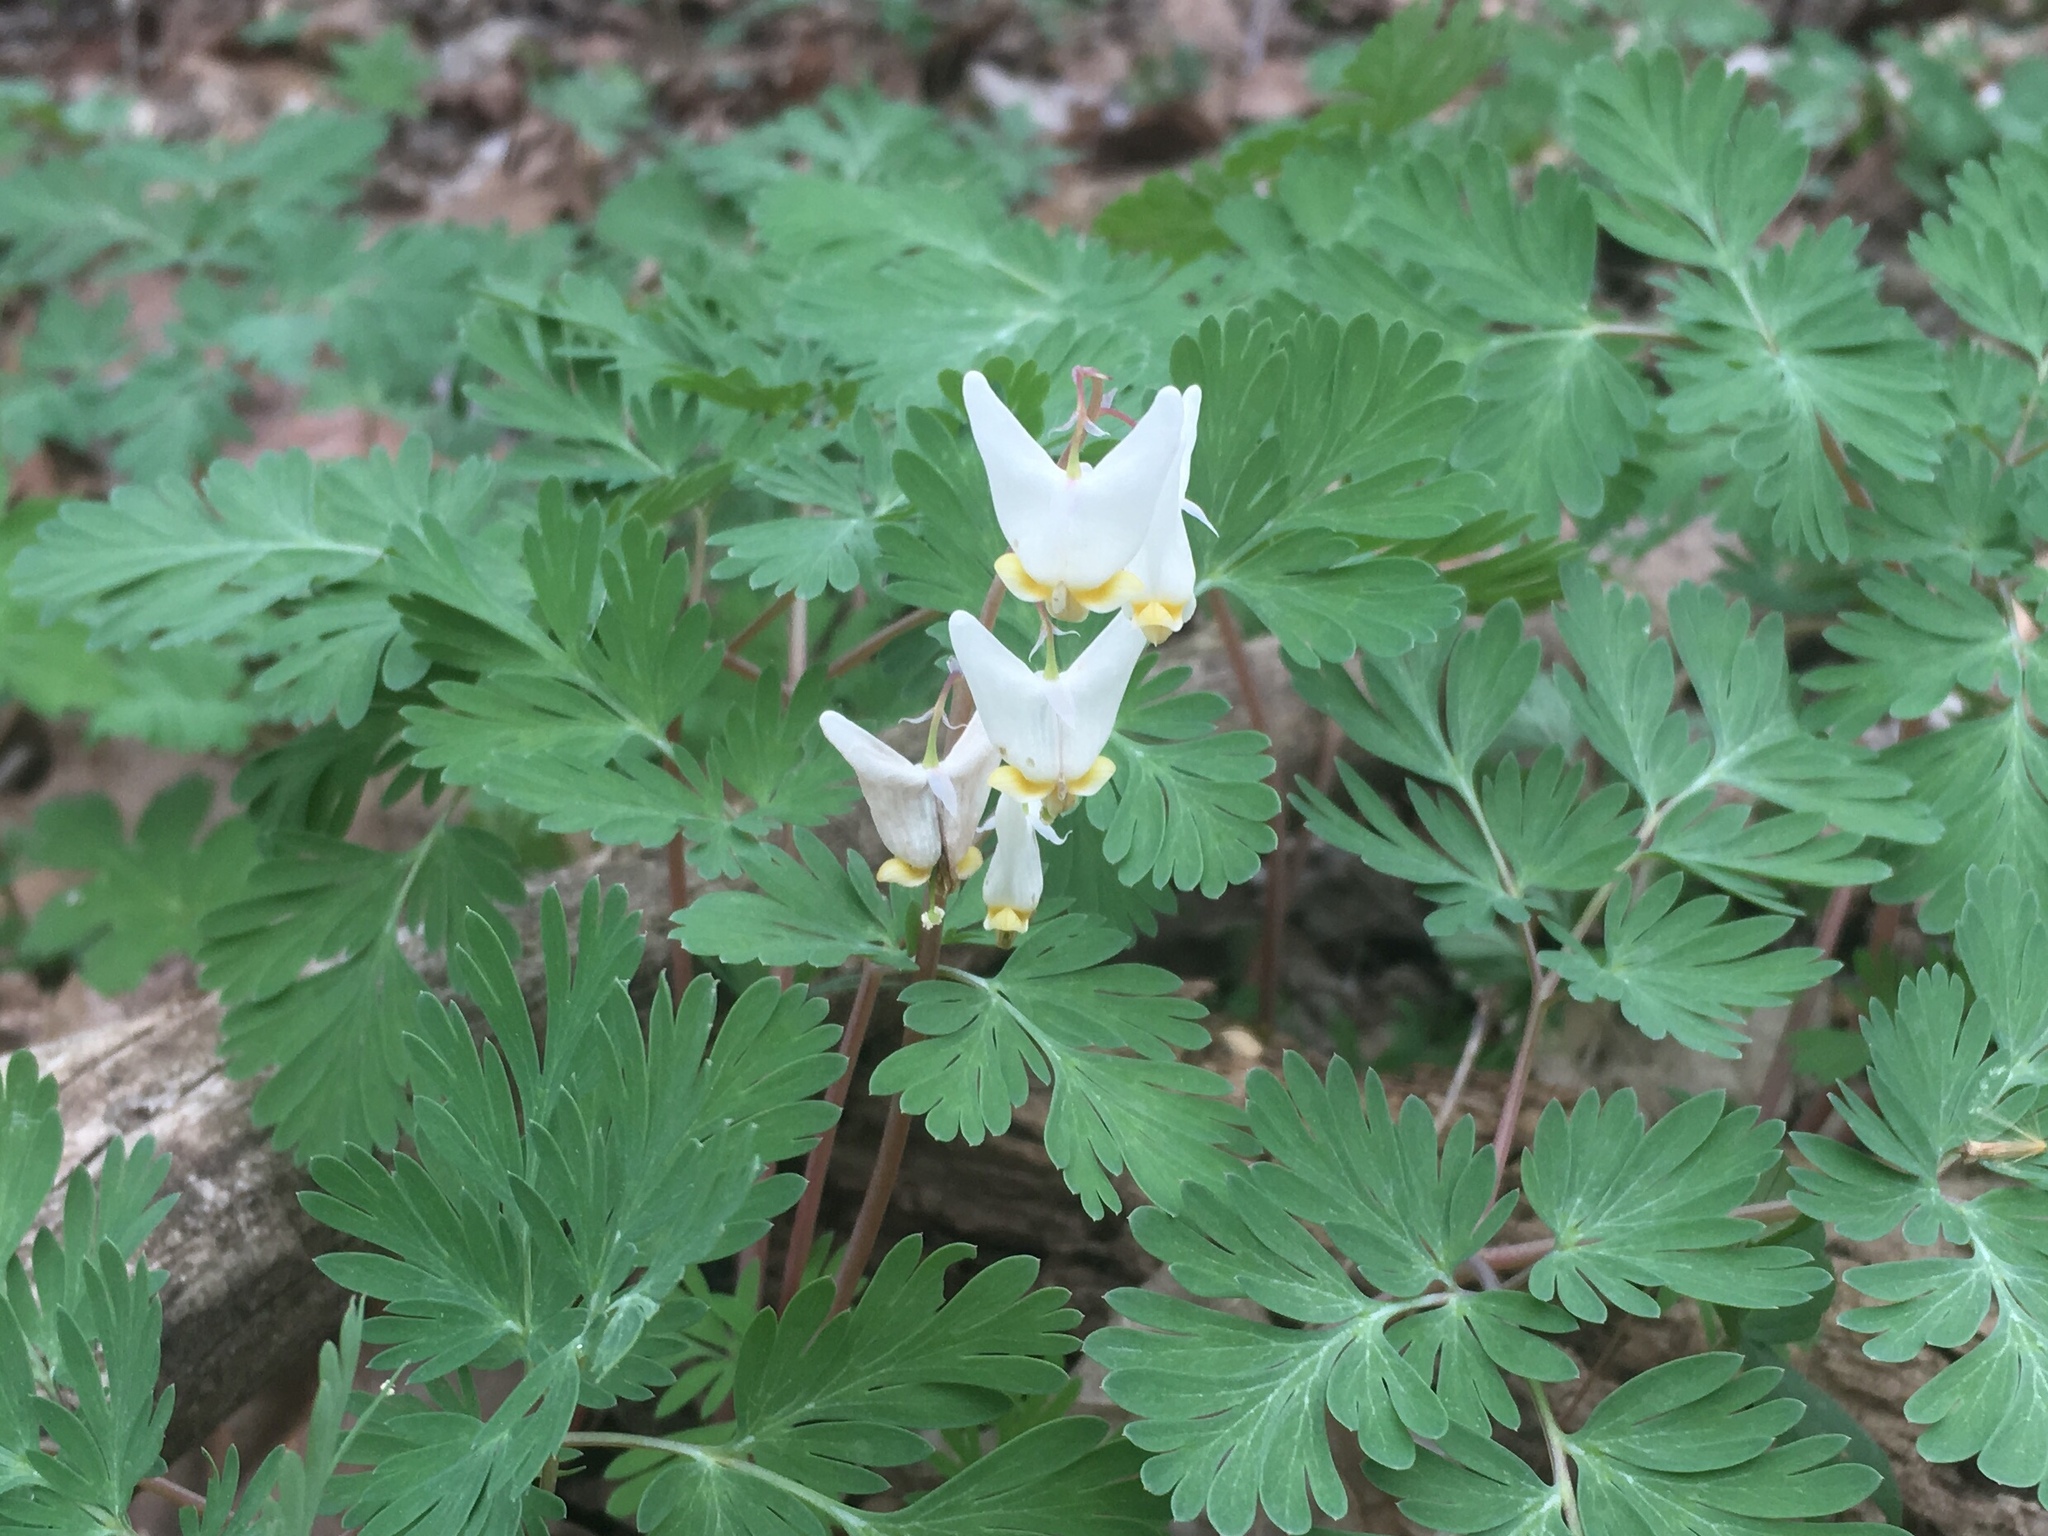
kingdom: Plantae
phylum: Tracheophyta
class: Magnoliopsida
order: Ranunculales
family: Papaveraceae
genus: Dicentra
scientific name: Dicentra cucullaria
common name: Dutchman's breeches
